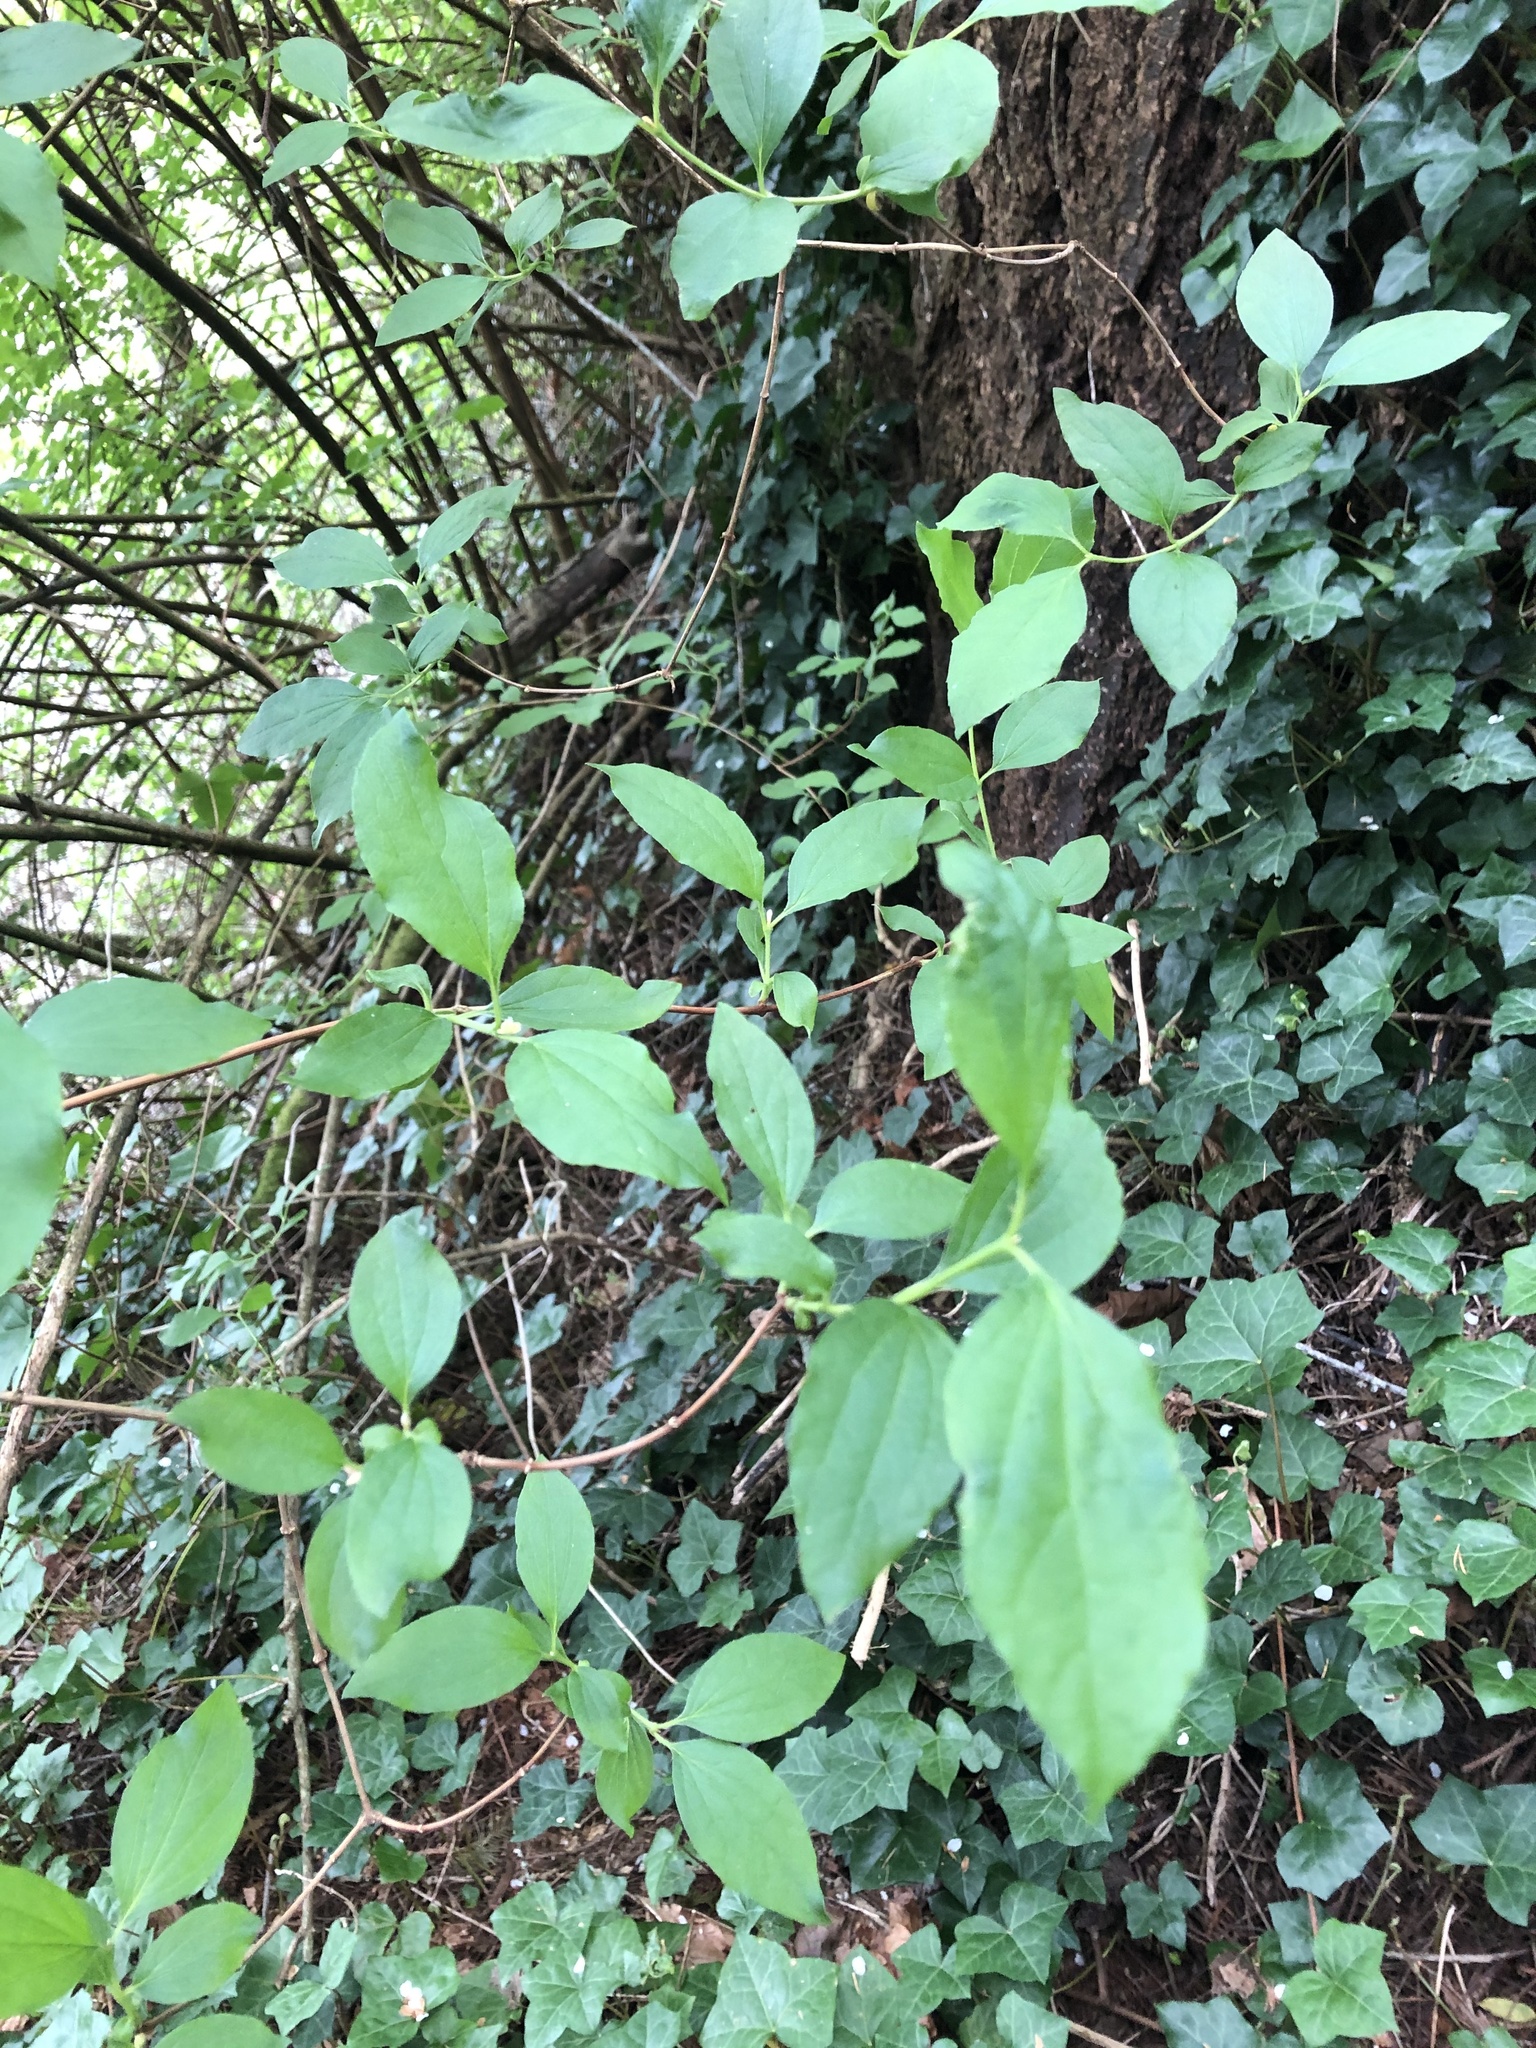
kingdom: Plantae
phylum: Tracheophyta
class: Magnoliopsida
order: Cornales
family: Hydrangeaceae
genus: Philadelphus
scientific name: Philadelphus lewisii
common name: Lewis's mock orange
